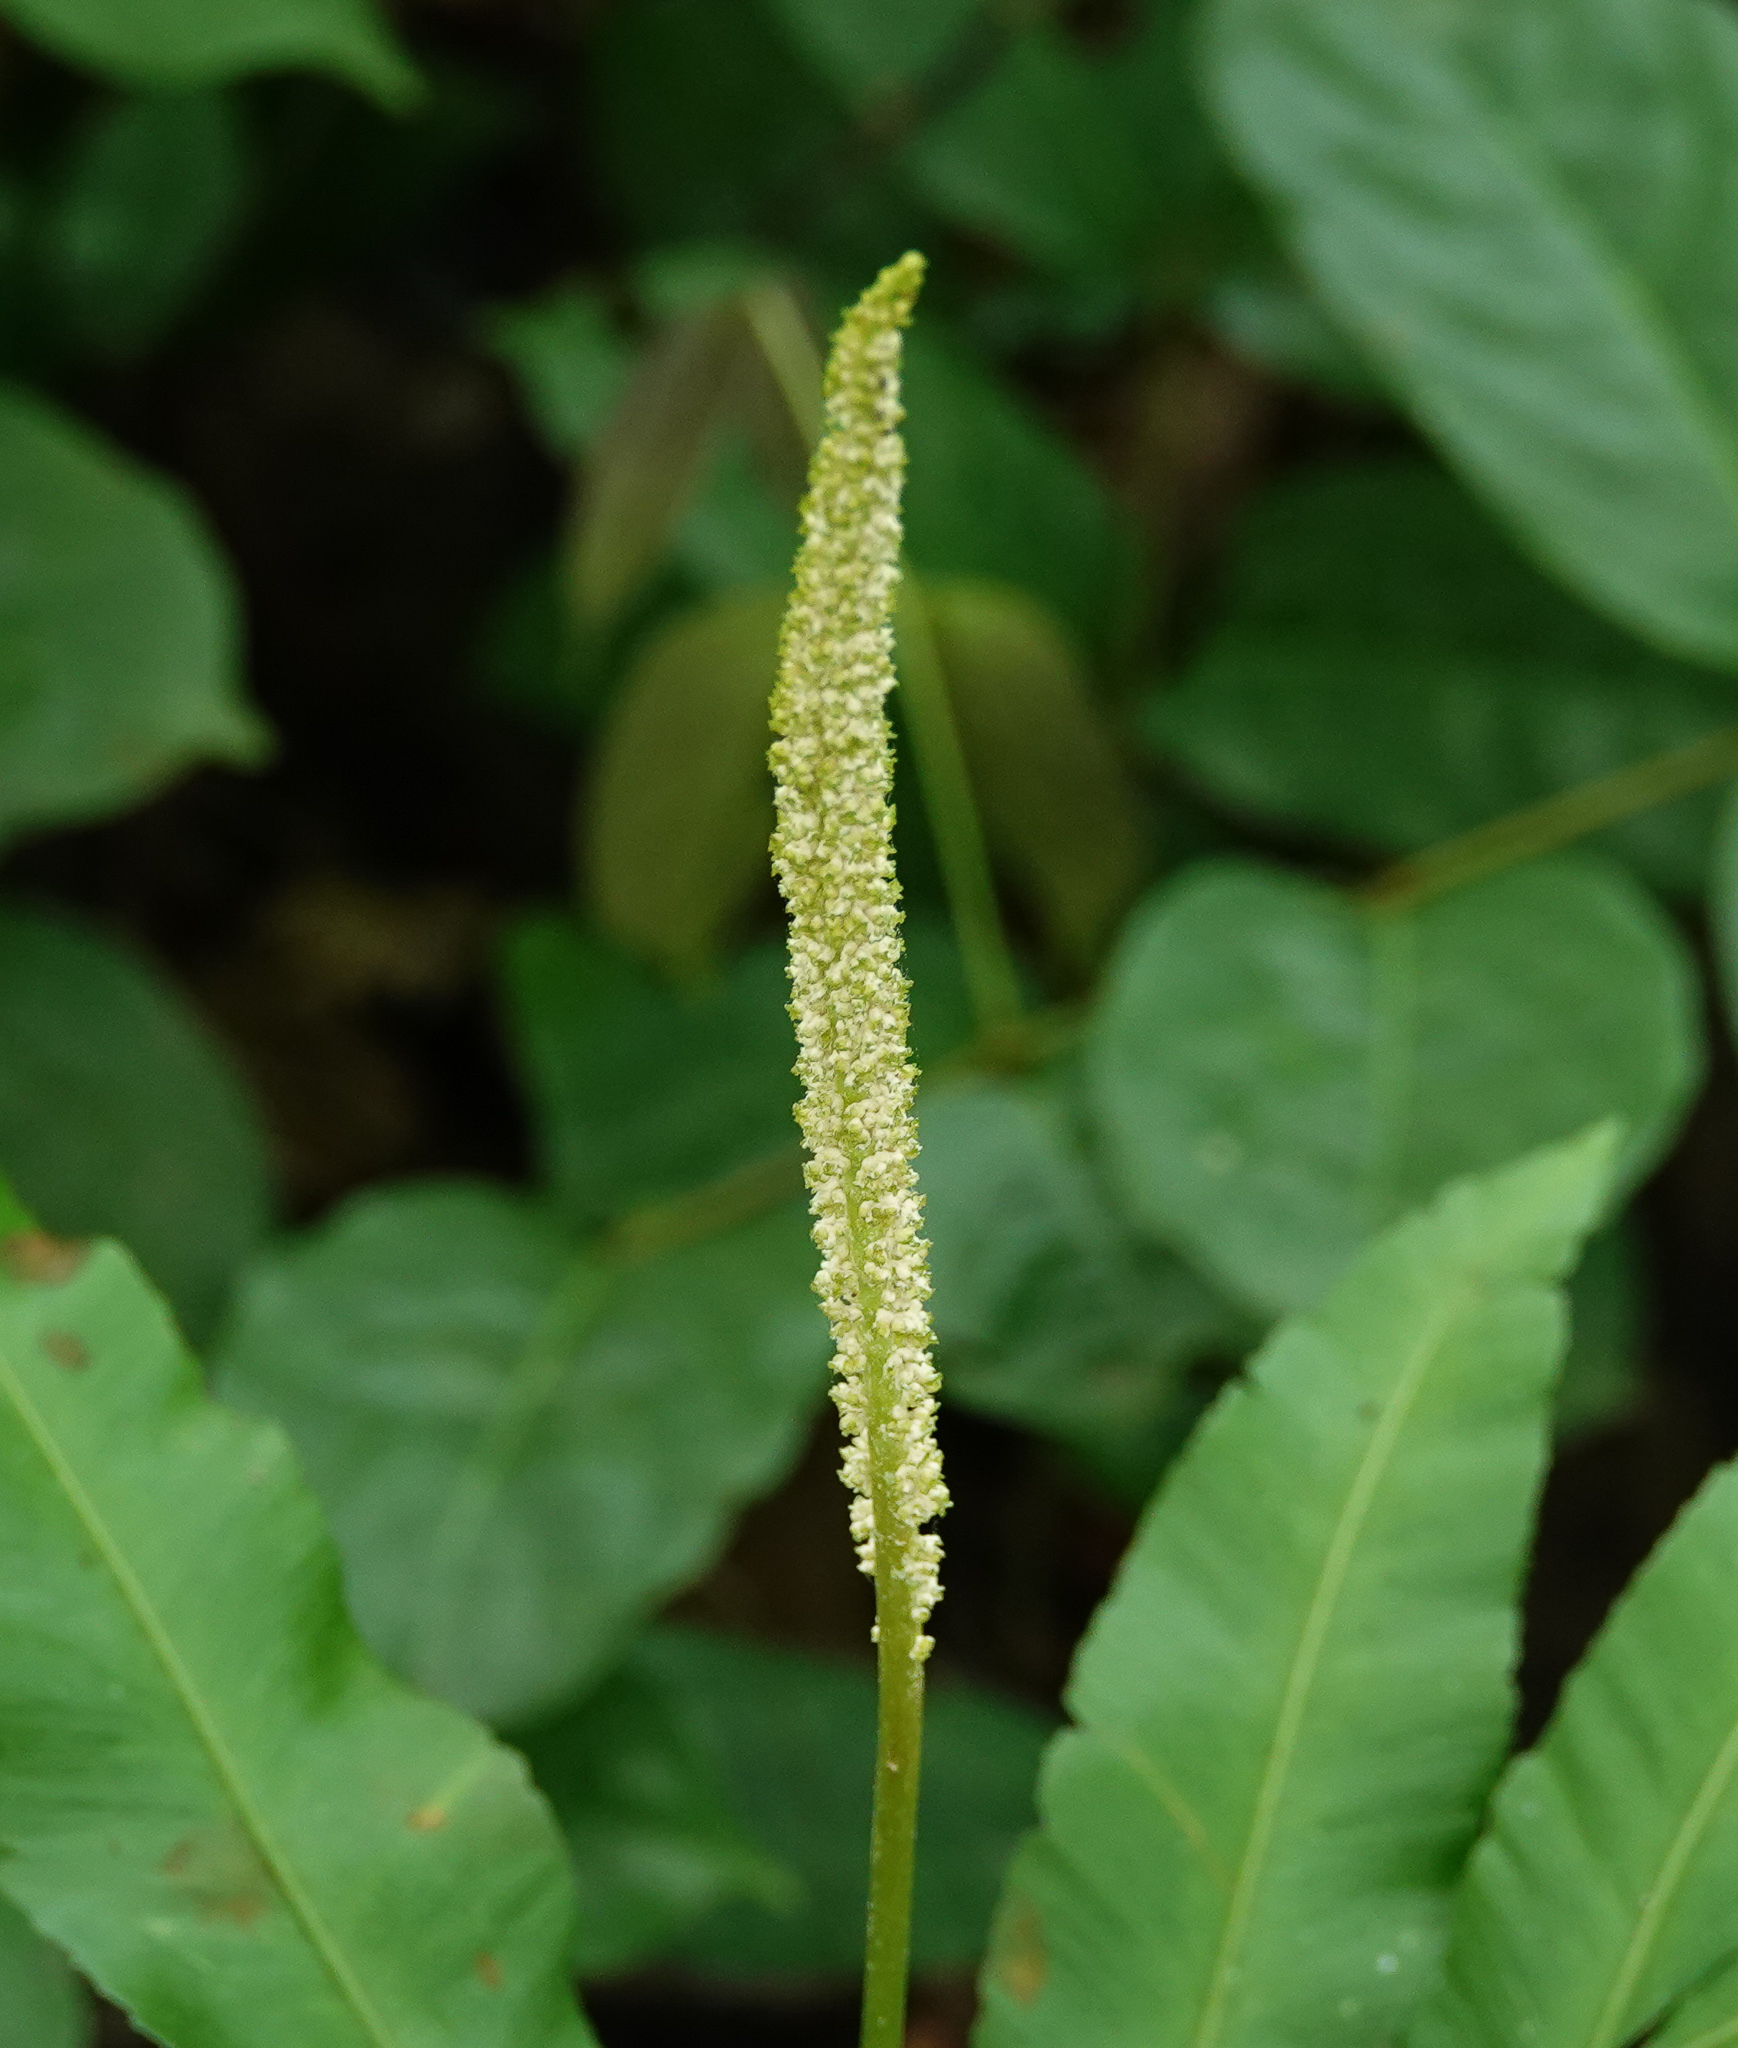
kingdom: Plantae
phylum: Tracheophyta
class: Polypodiopsida
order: Ophioglossales
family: Ophioglossaceae
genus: Helminthostachys
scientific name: Helminthostachys zeylanica
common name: Flowering fern
